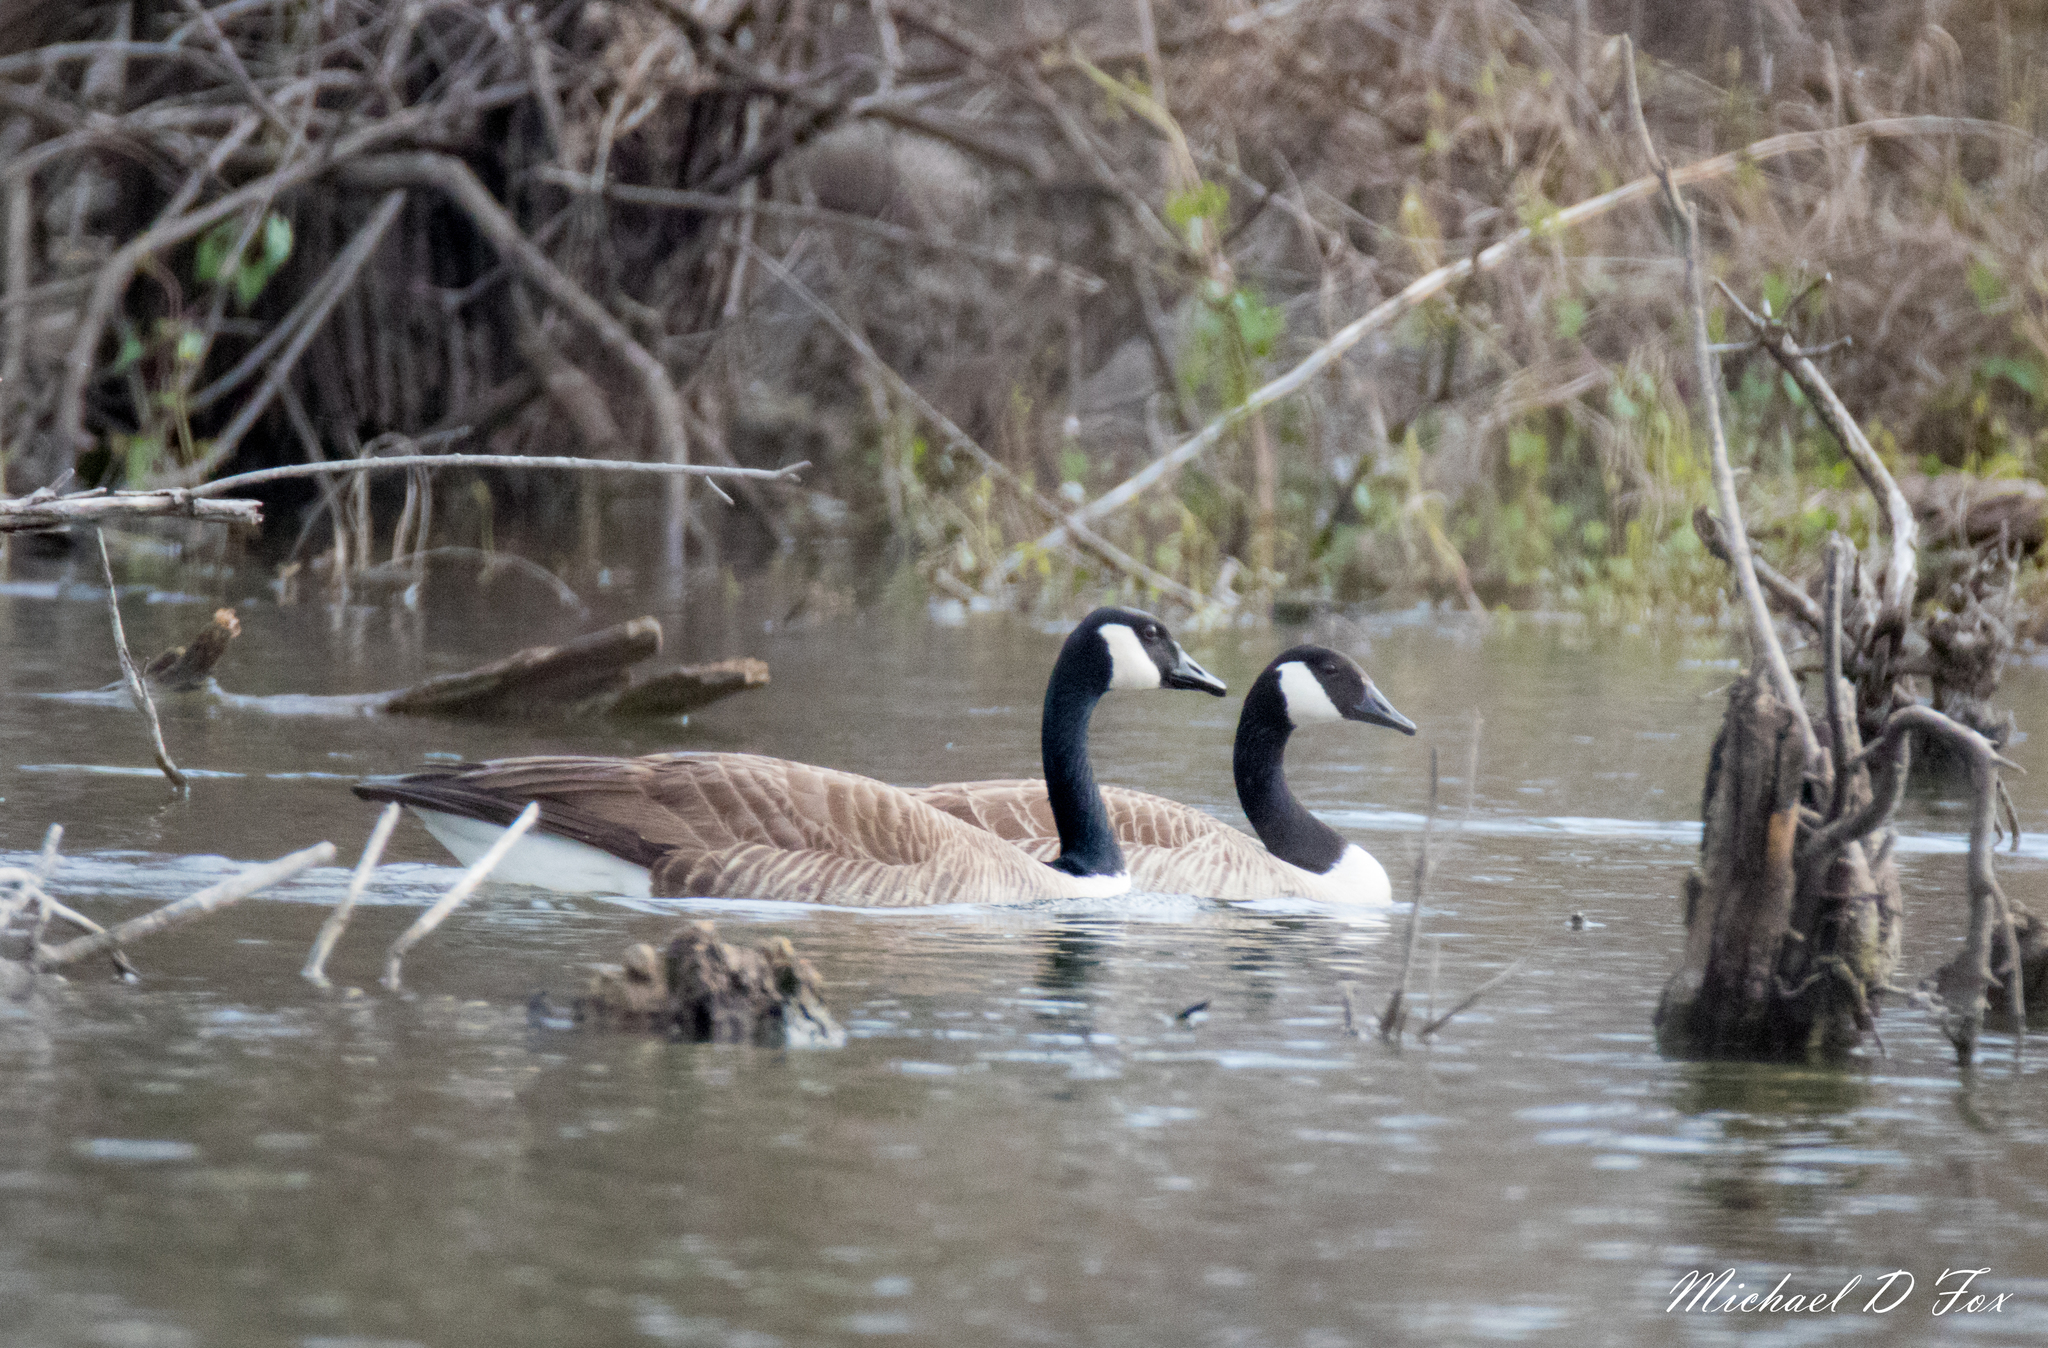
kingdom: Animalia
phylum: Chordata
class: Aves
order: Anseriformes
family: Anatidae
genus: Branta
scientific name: Branta canadensis
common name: Canada goose
